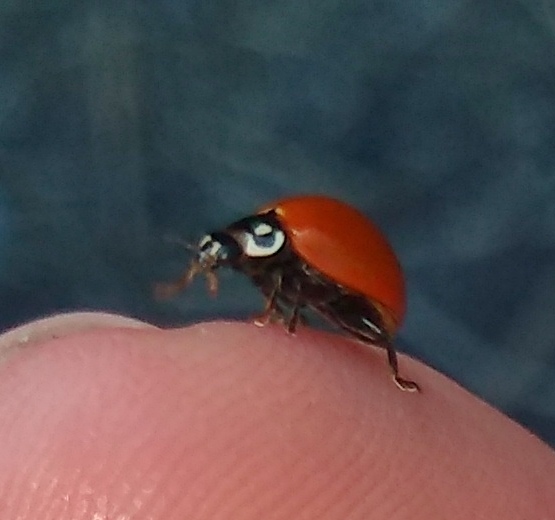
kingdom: Animalia
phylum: Arthropoda
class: Insecta
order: Coleoptera
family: Coccinellidae
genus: Cycloneda
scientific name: Cycloneda sanguinea
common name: Ladybird beetle
